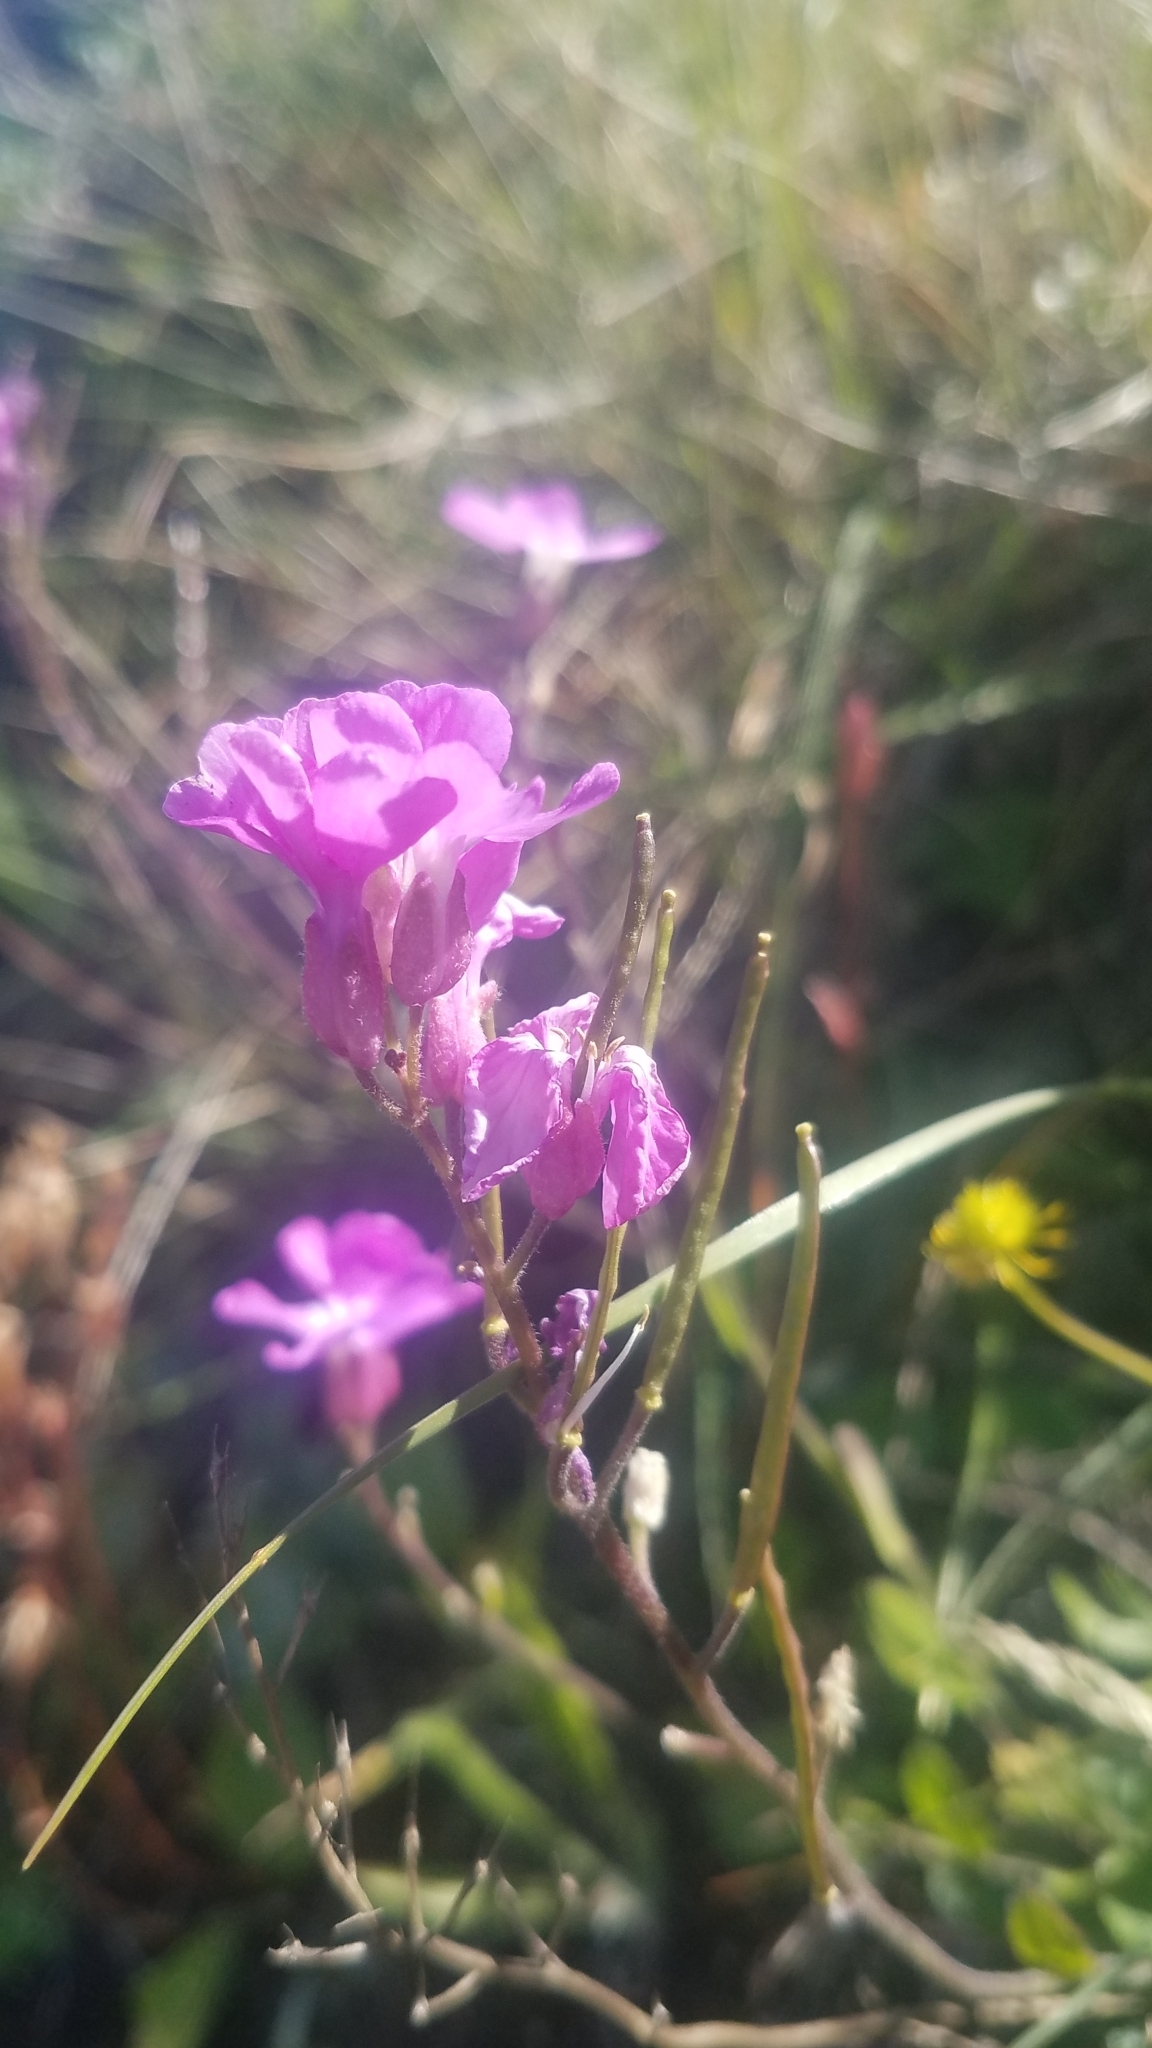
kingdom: Plantae
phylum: Tracheophyta
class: Magnoliopsida
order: Brassicales
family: Brassicaceae
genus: Arabis
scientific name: Arabis blepharophylla
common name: Rose rockcress
